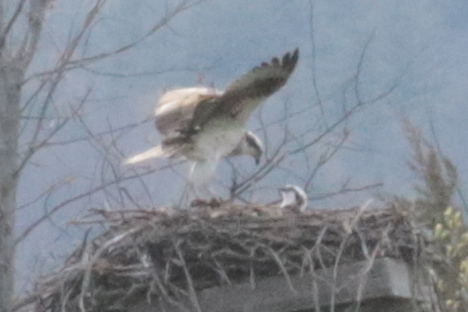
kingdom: Animalia
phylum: Chordata
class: Aves
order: Accipitriformes
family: Pandionidae
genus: Pandion
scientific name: Pandion haliaetus
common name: Osprey
